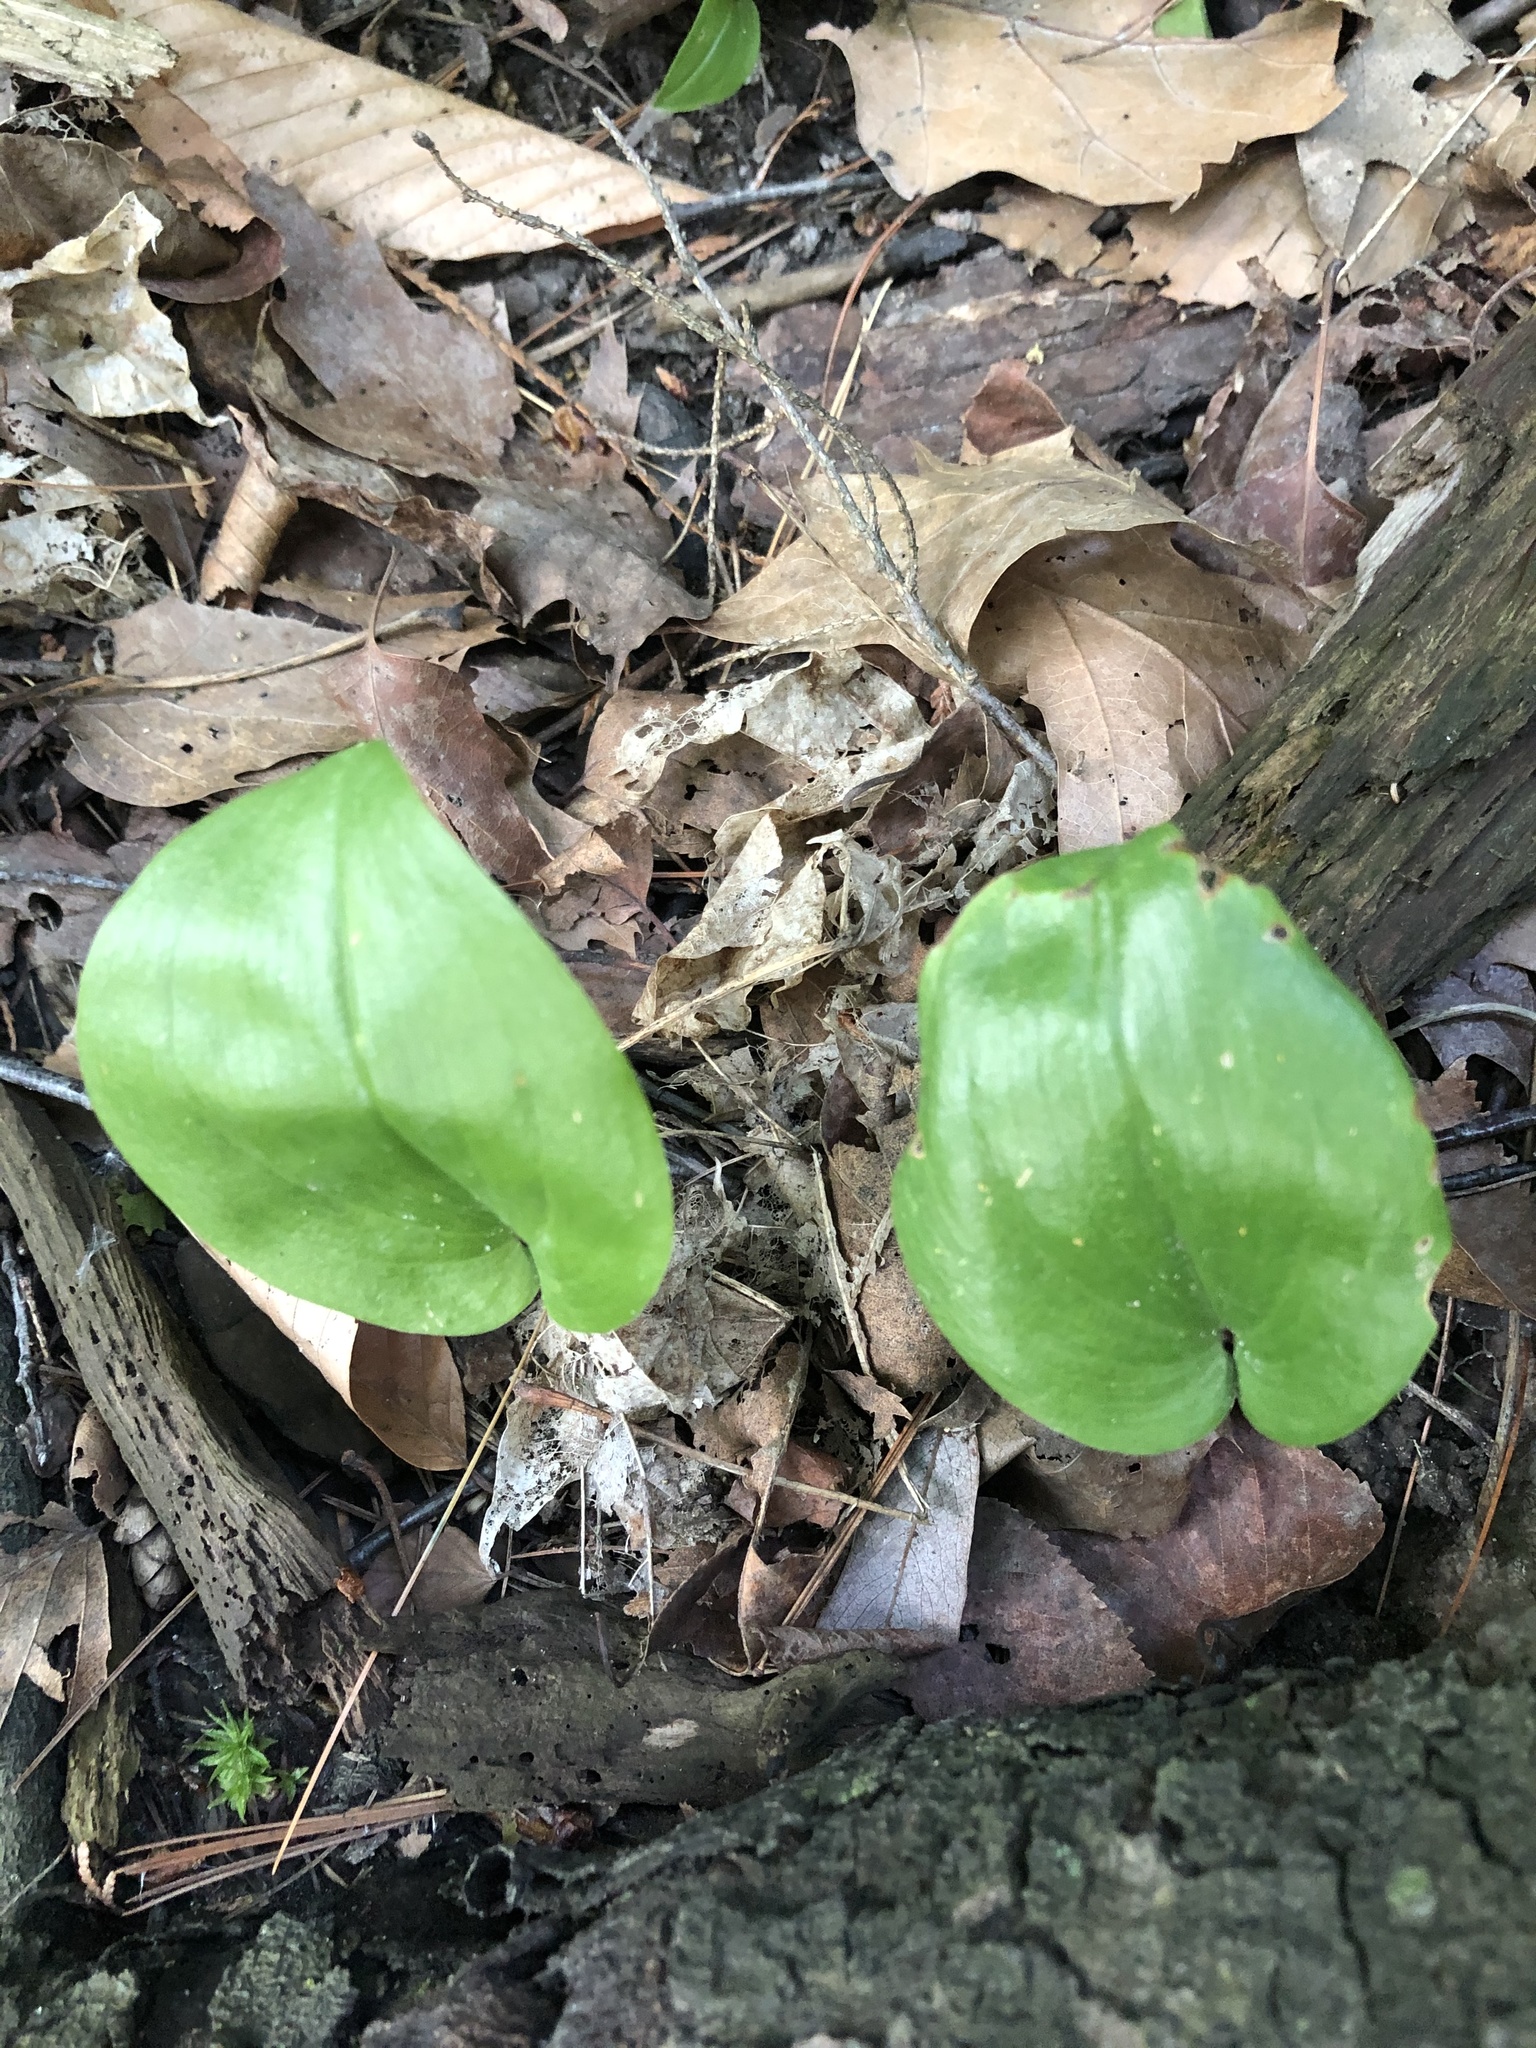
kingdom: Plantae
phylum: Tracheophyta
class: Liliopsida
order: Asparagales
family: Asparagaceae
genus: Maianthemum
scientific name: Maianthemum canadense
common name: False lily-of-the-valley
